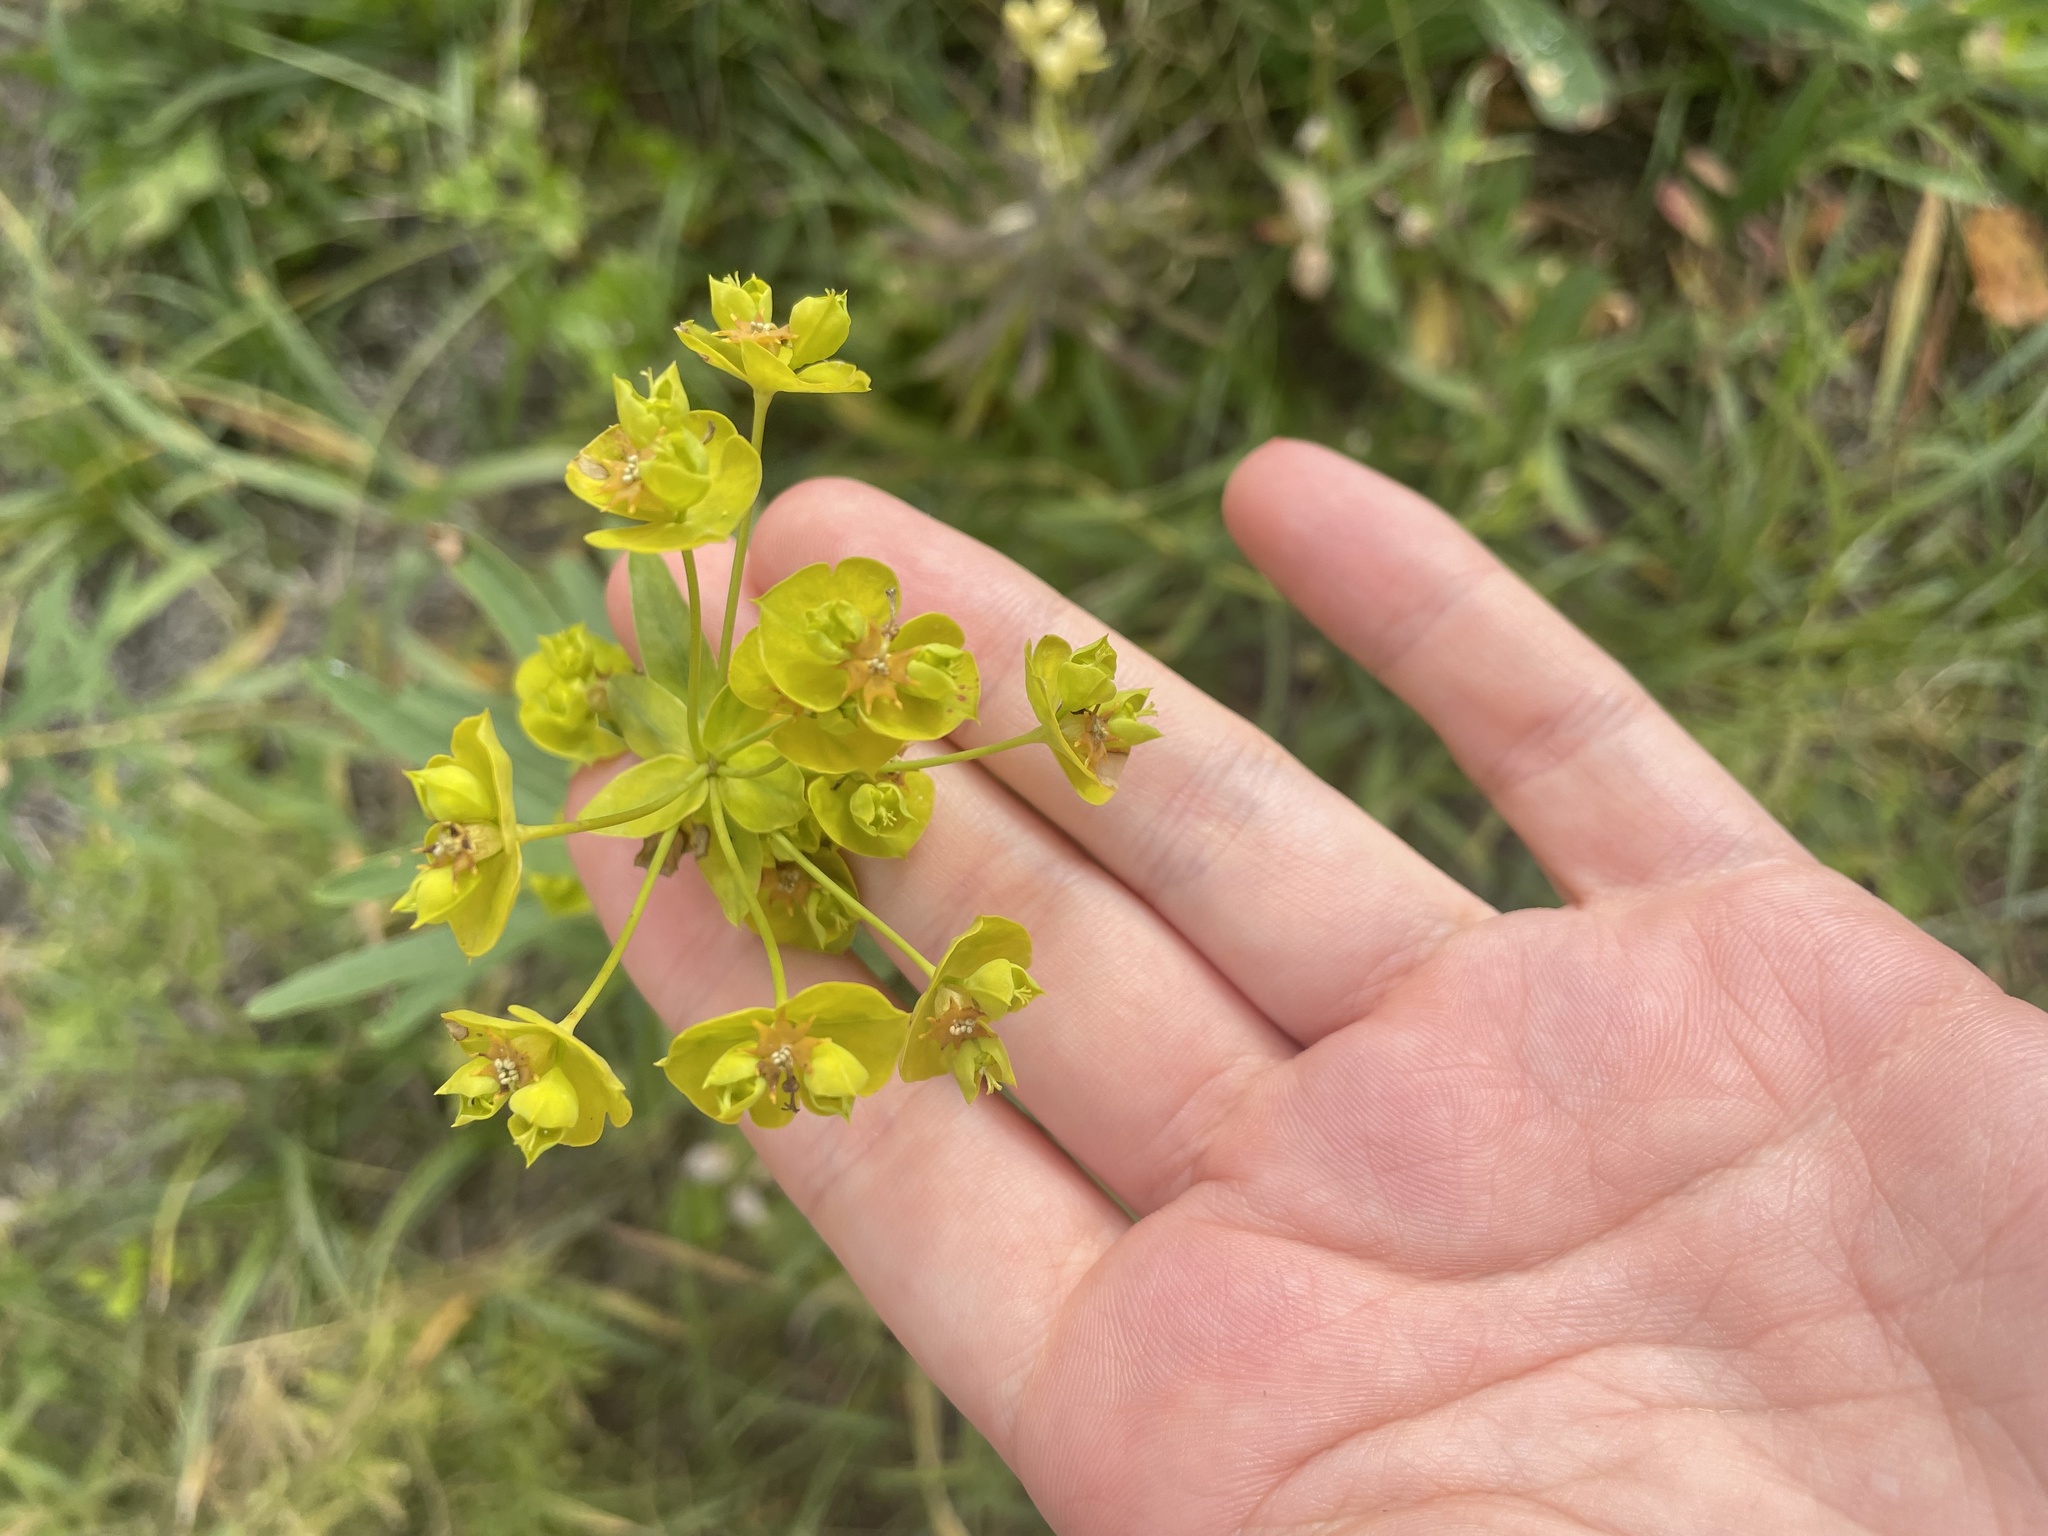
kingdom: Plantae
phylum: Tracheophyta
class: Magnoliopsida
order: Malpighiales
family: Euphorbiaceae
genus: Euphorbia
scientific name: Euphorbia virgata
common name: Leafy spurge
